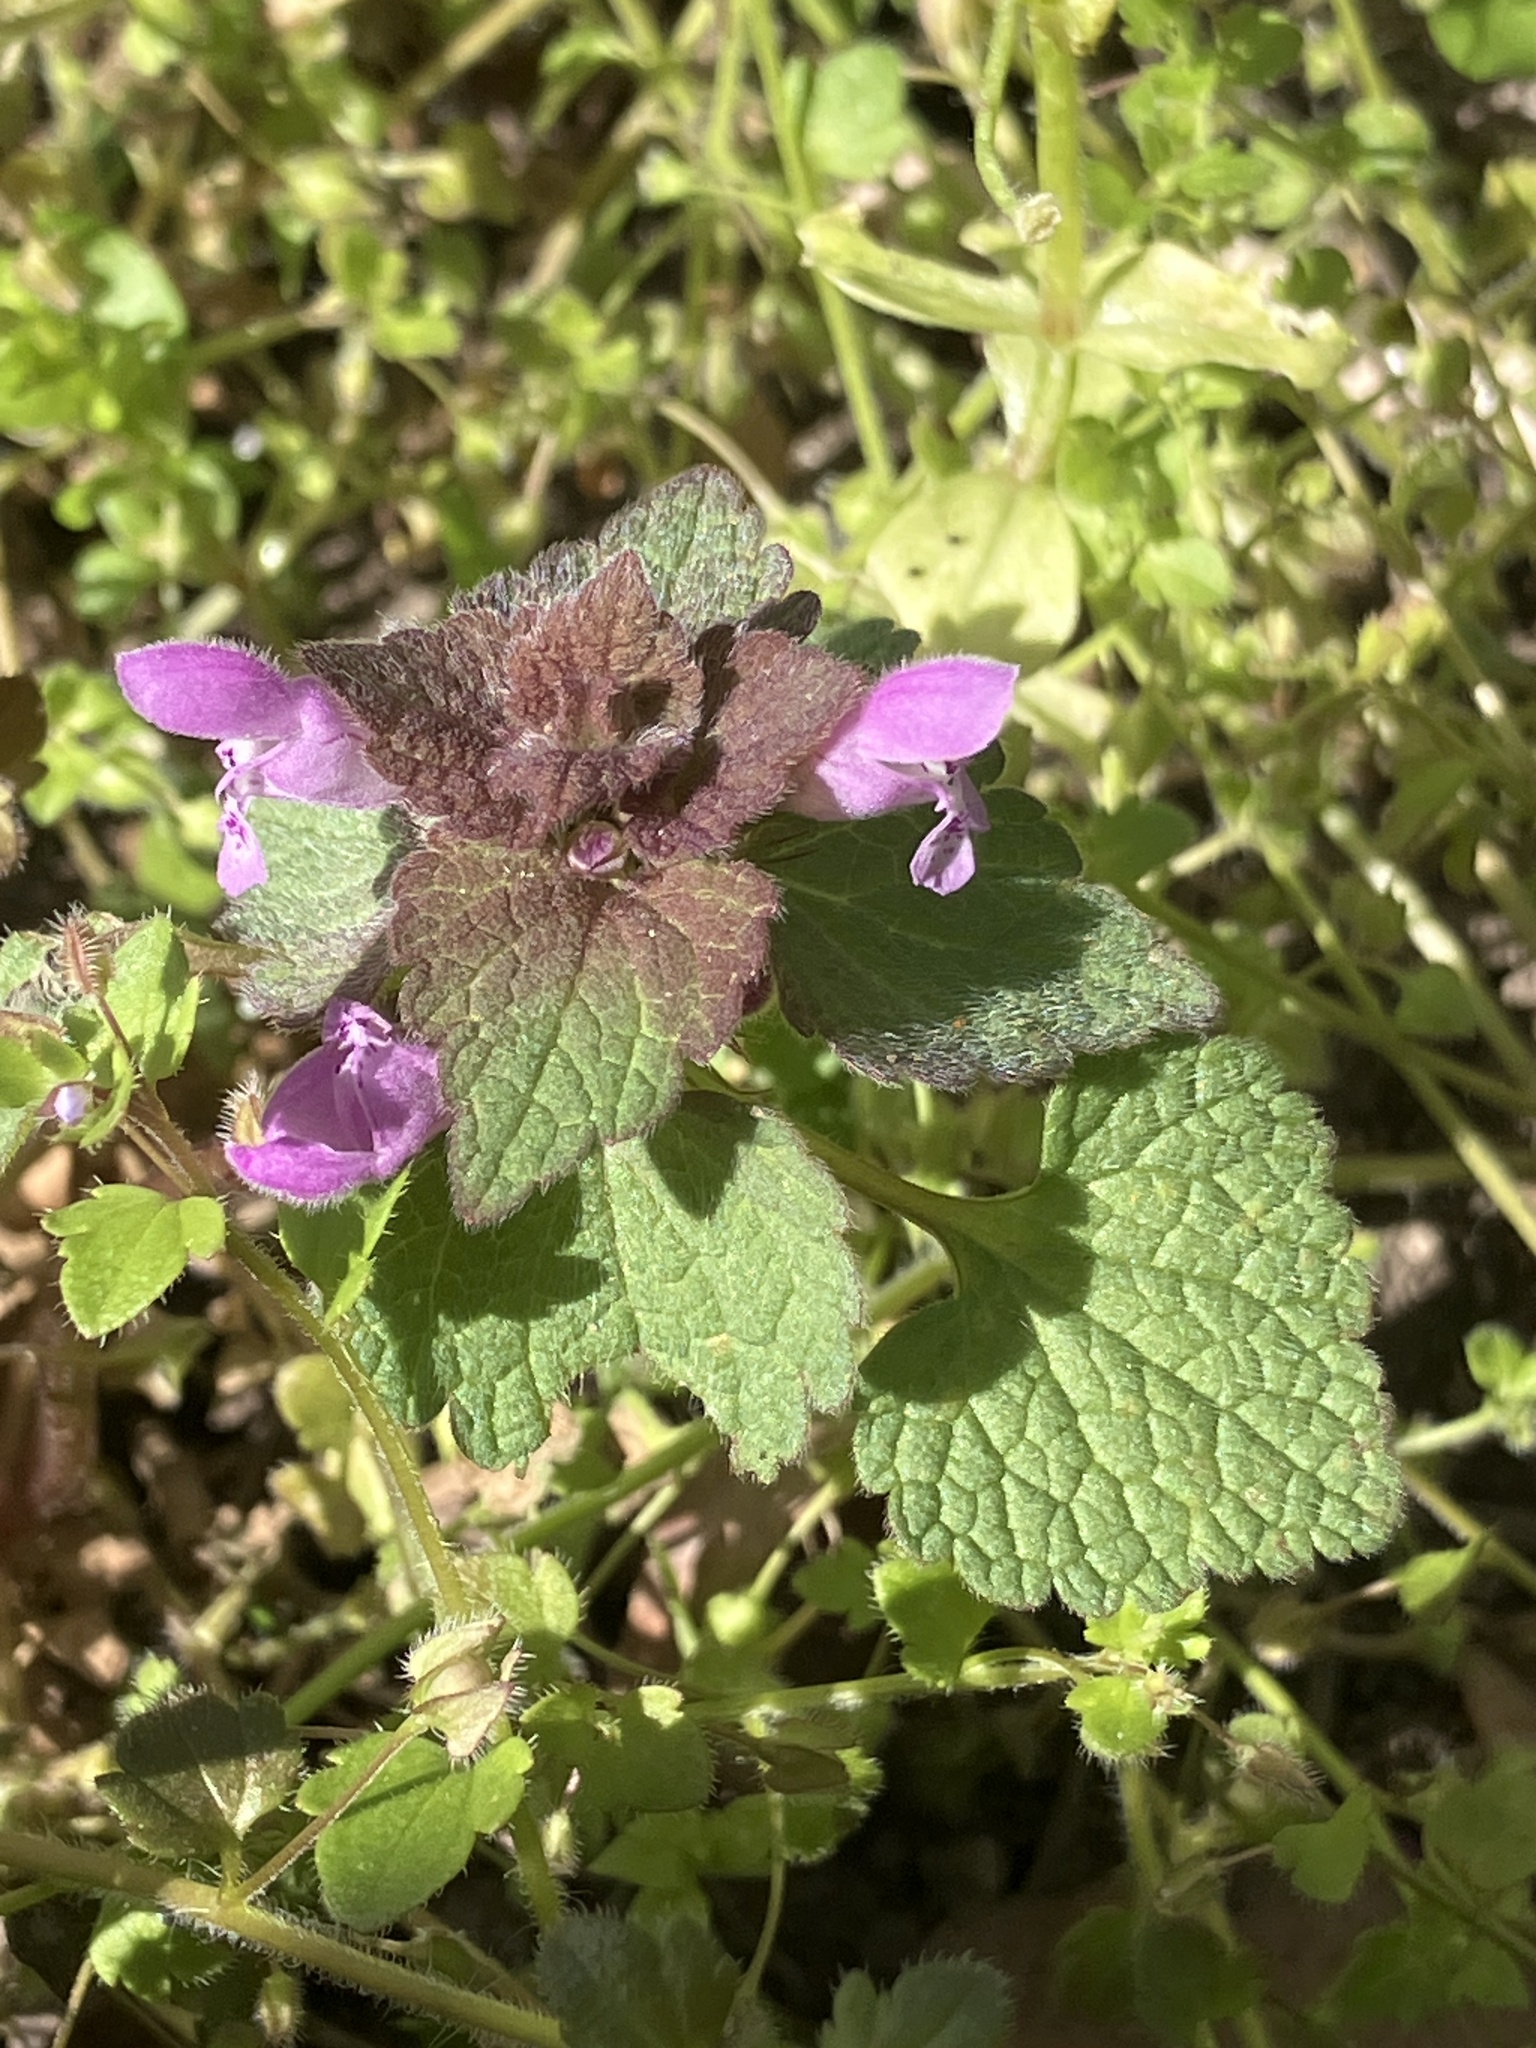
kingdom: Plantae
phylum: Tracheophyta
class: Magnoliopsida
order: Lamiales
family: Lamiaceae
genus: Lamium
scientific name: Lamium purpureum
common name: Red dead-nettle
